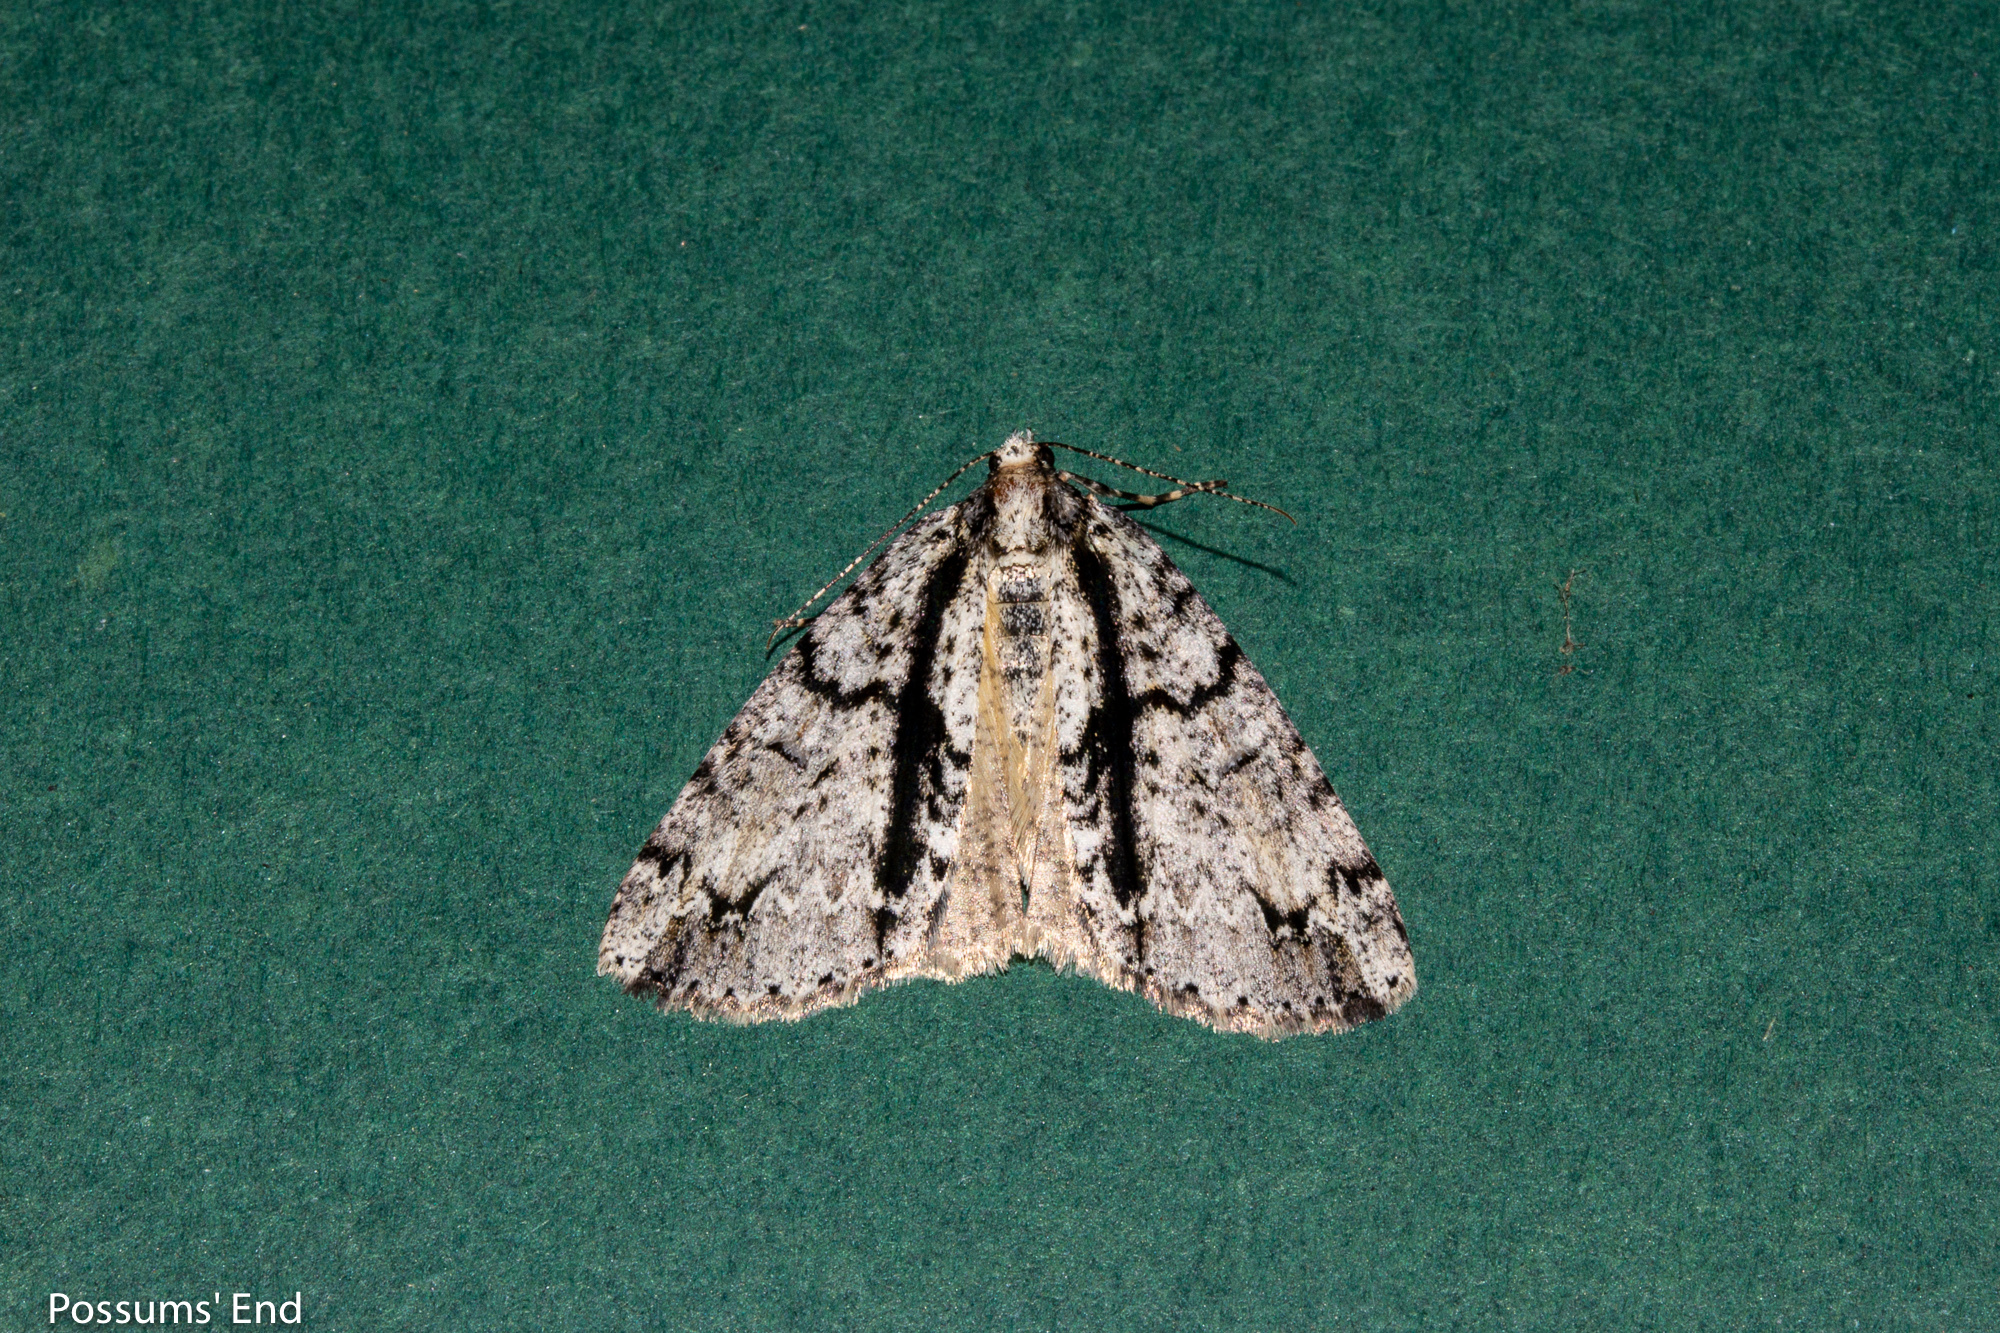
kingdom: Animalia
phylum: Arthropoda
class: Insecta
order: Lepidoptera
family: Geometridae
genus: Pseudocoremia
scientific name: Pseudocoremia suavis
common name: Common forest looper
